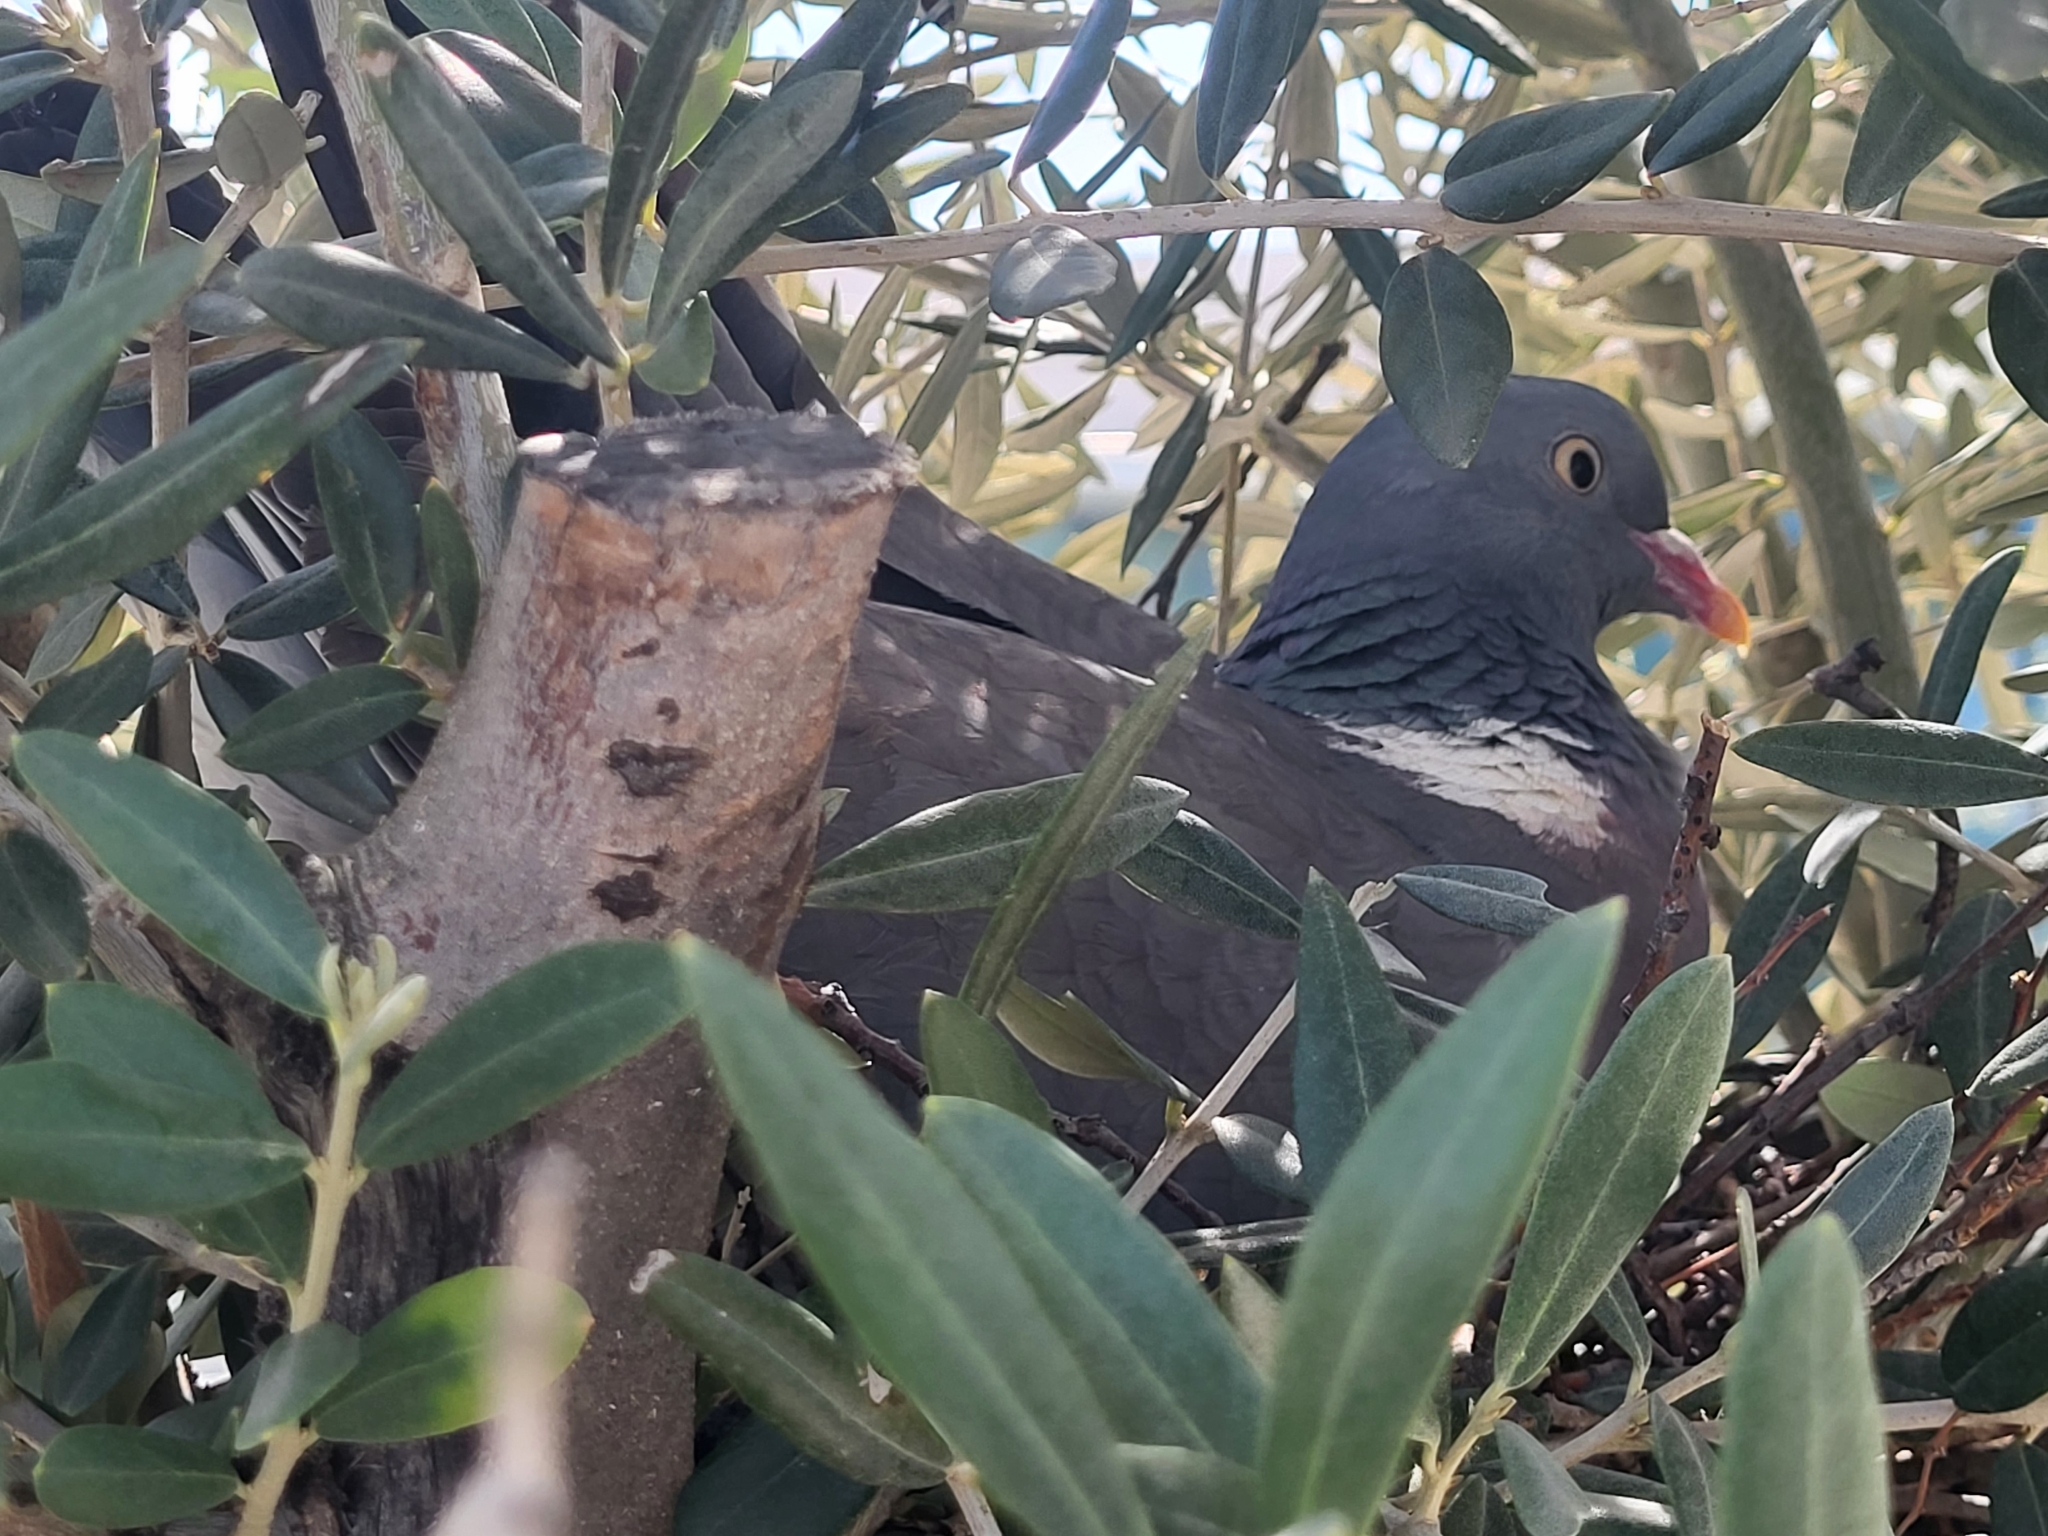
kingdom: Animalia
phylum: Chordata
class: Aves
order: Columbiformes
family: Columbidae
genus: Columba
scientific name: Columba palumbus
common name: Common wood pigeon
